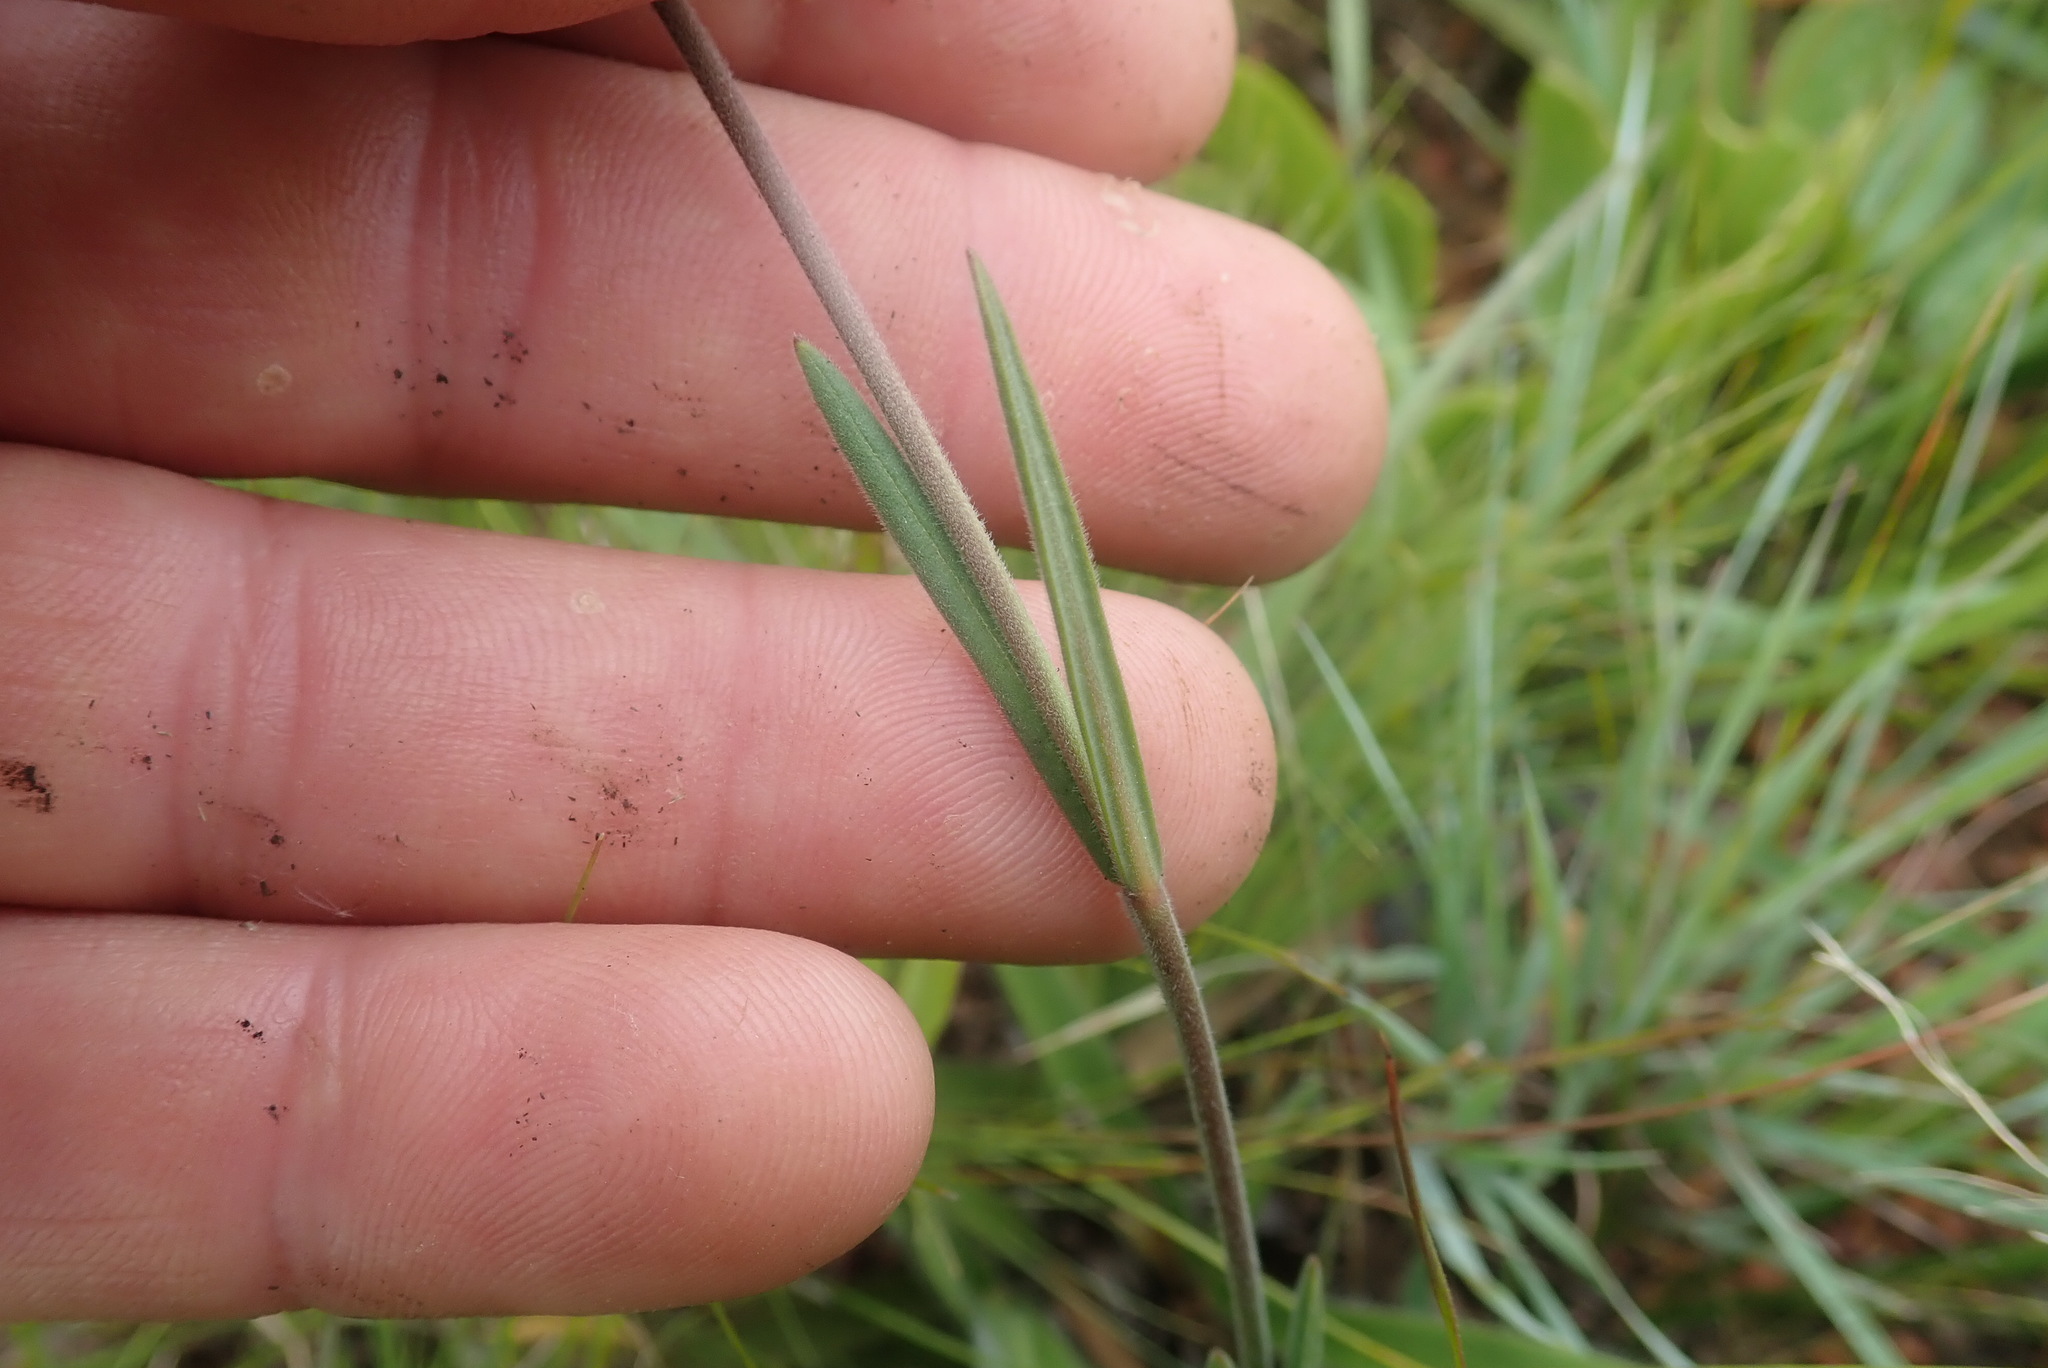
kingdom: Plantae
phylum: Tracheophyta
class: Magnoliopsida
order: Gentianales
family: Apocynaceae
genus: Aspidonepsis
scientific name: Aspidonepsis shebae
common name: Mount sheba suncup
